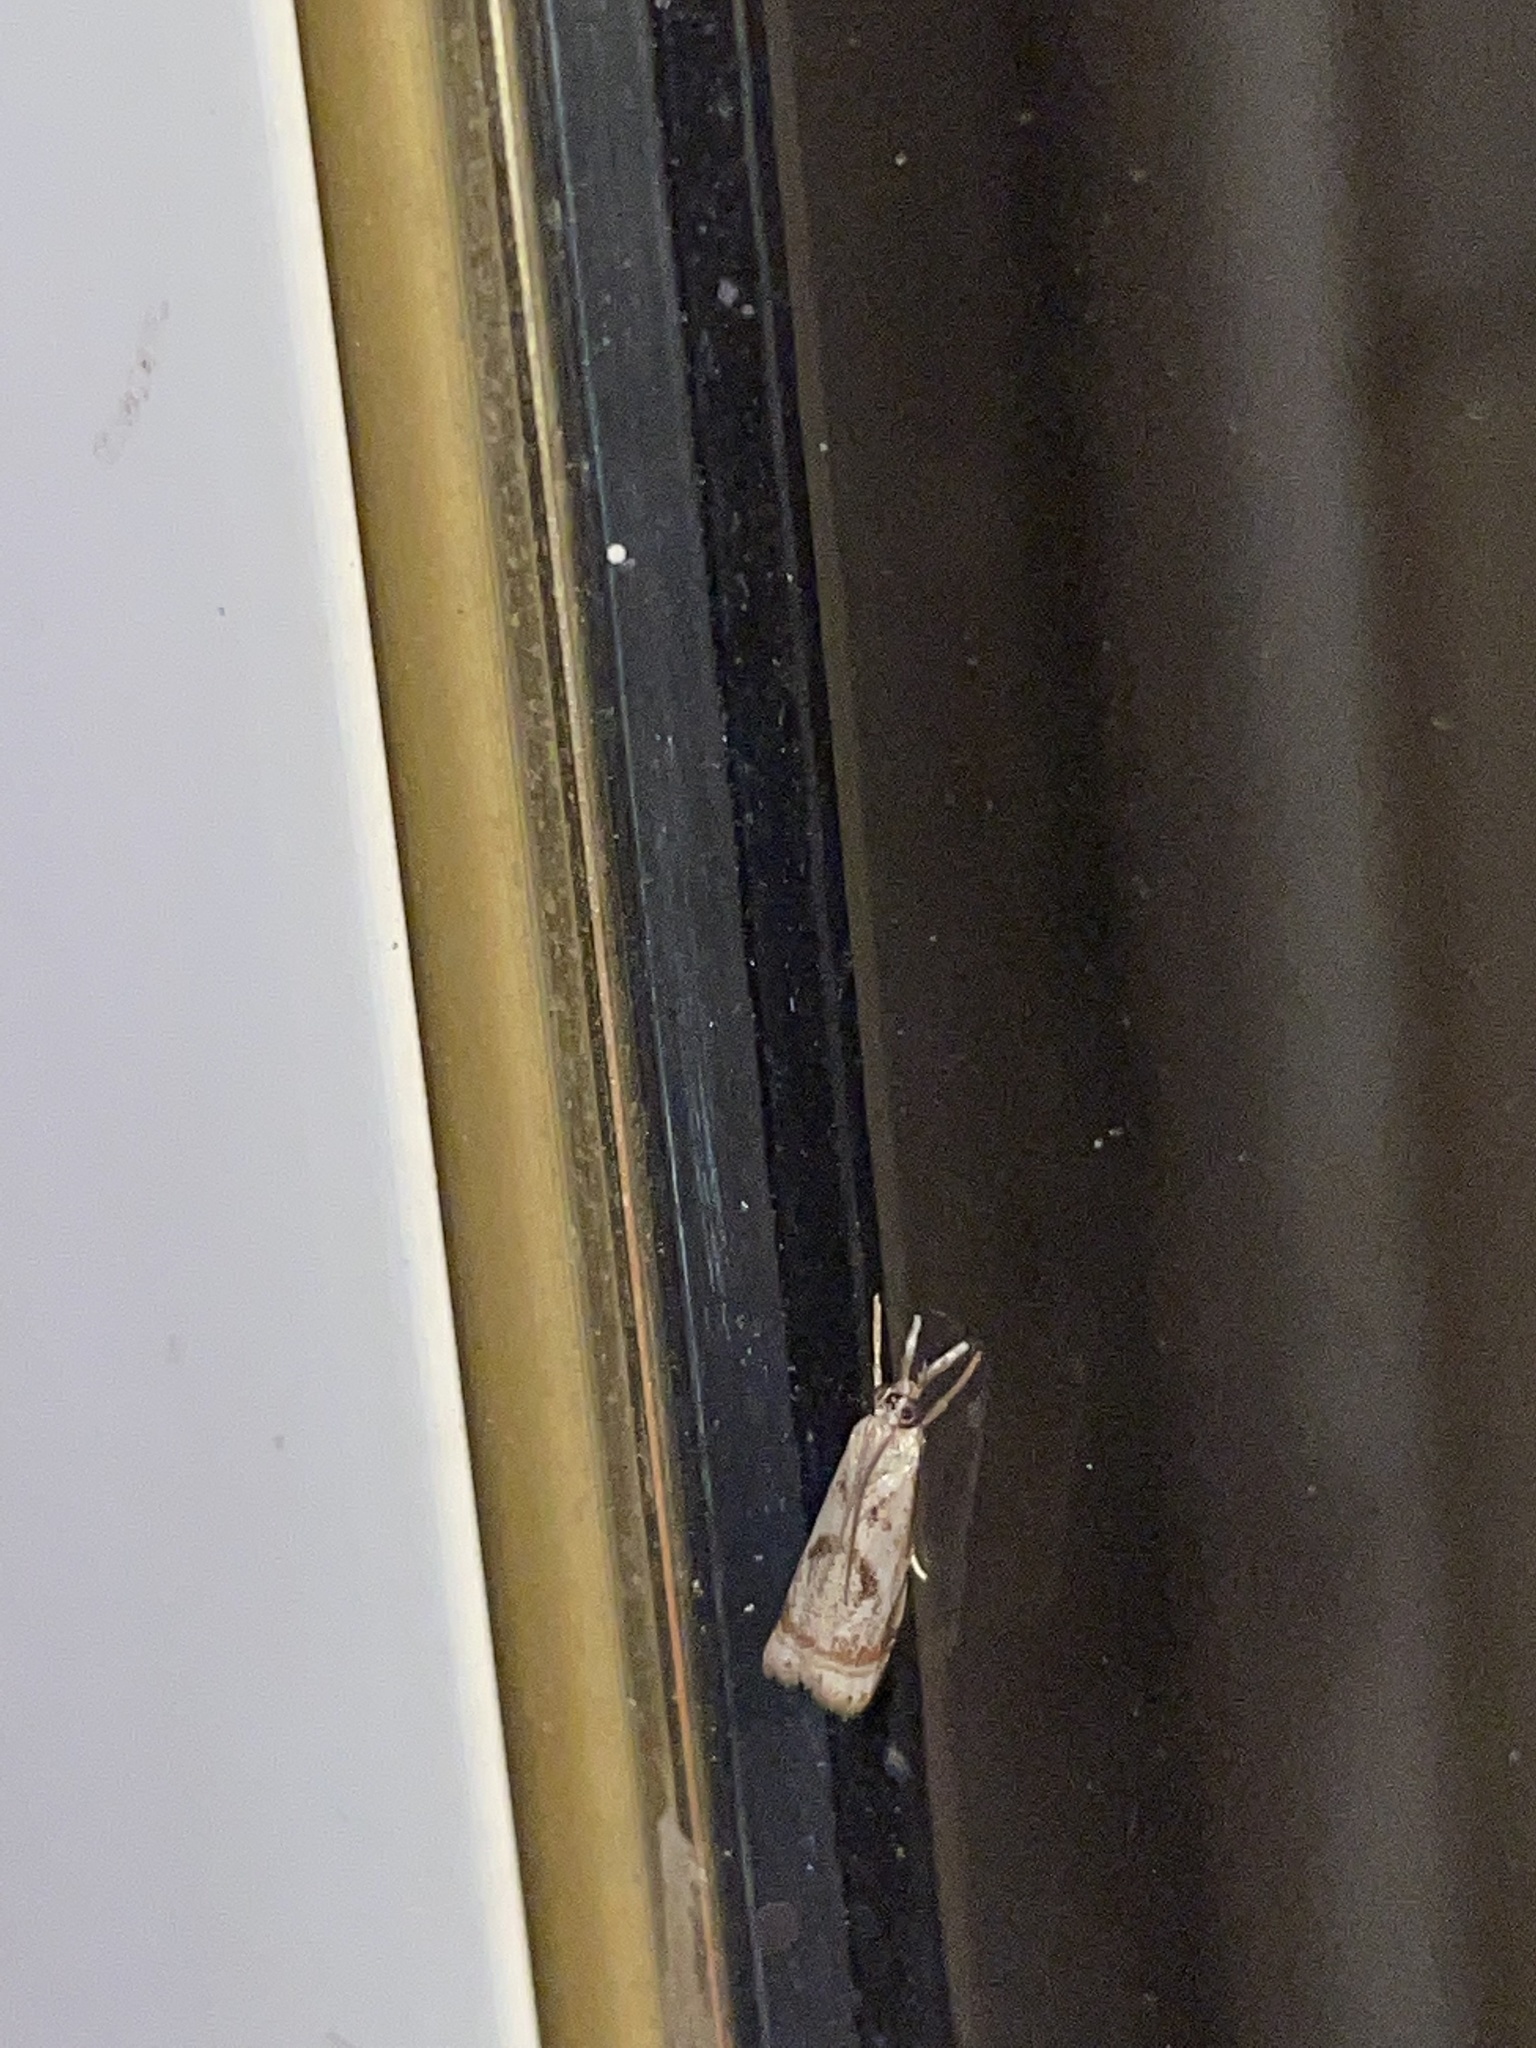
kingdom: Animalia
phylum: Arthropoda
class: Insecta
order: Lepidoptera
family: Crambidae
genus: Microcrambus
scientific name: Microcrambus elegans
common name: Elegant grass-veneer
